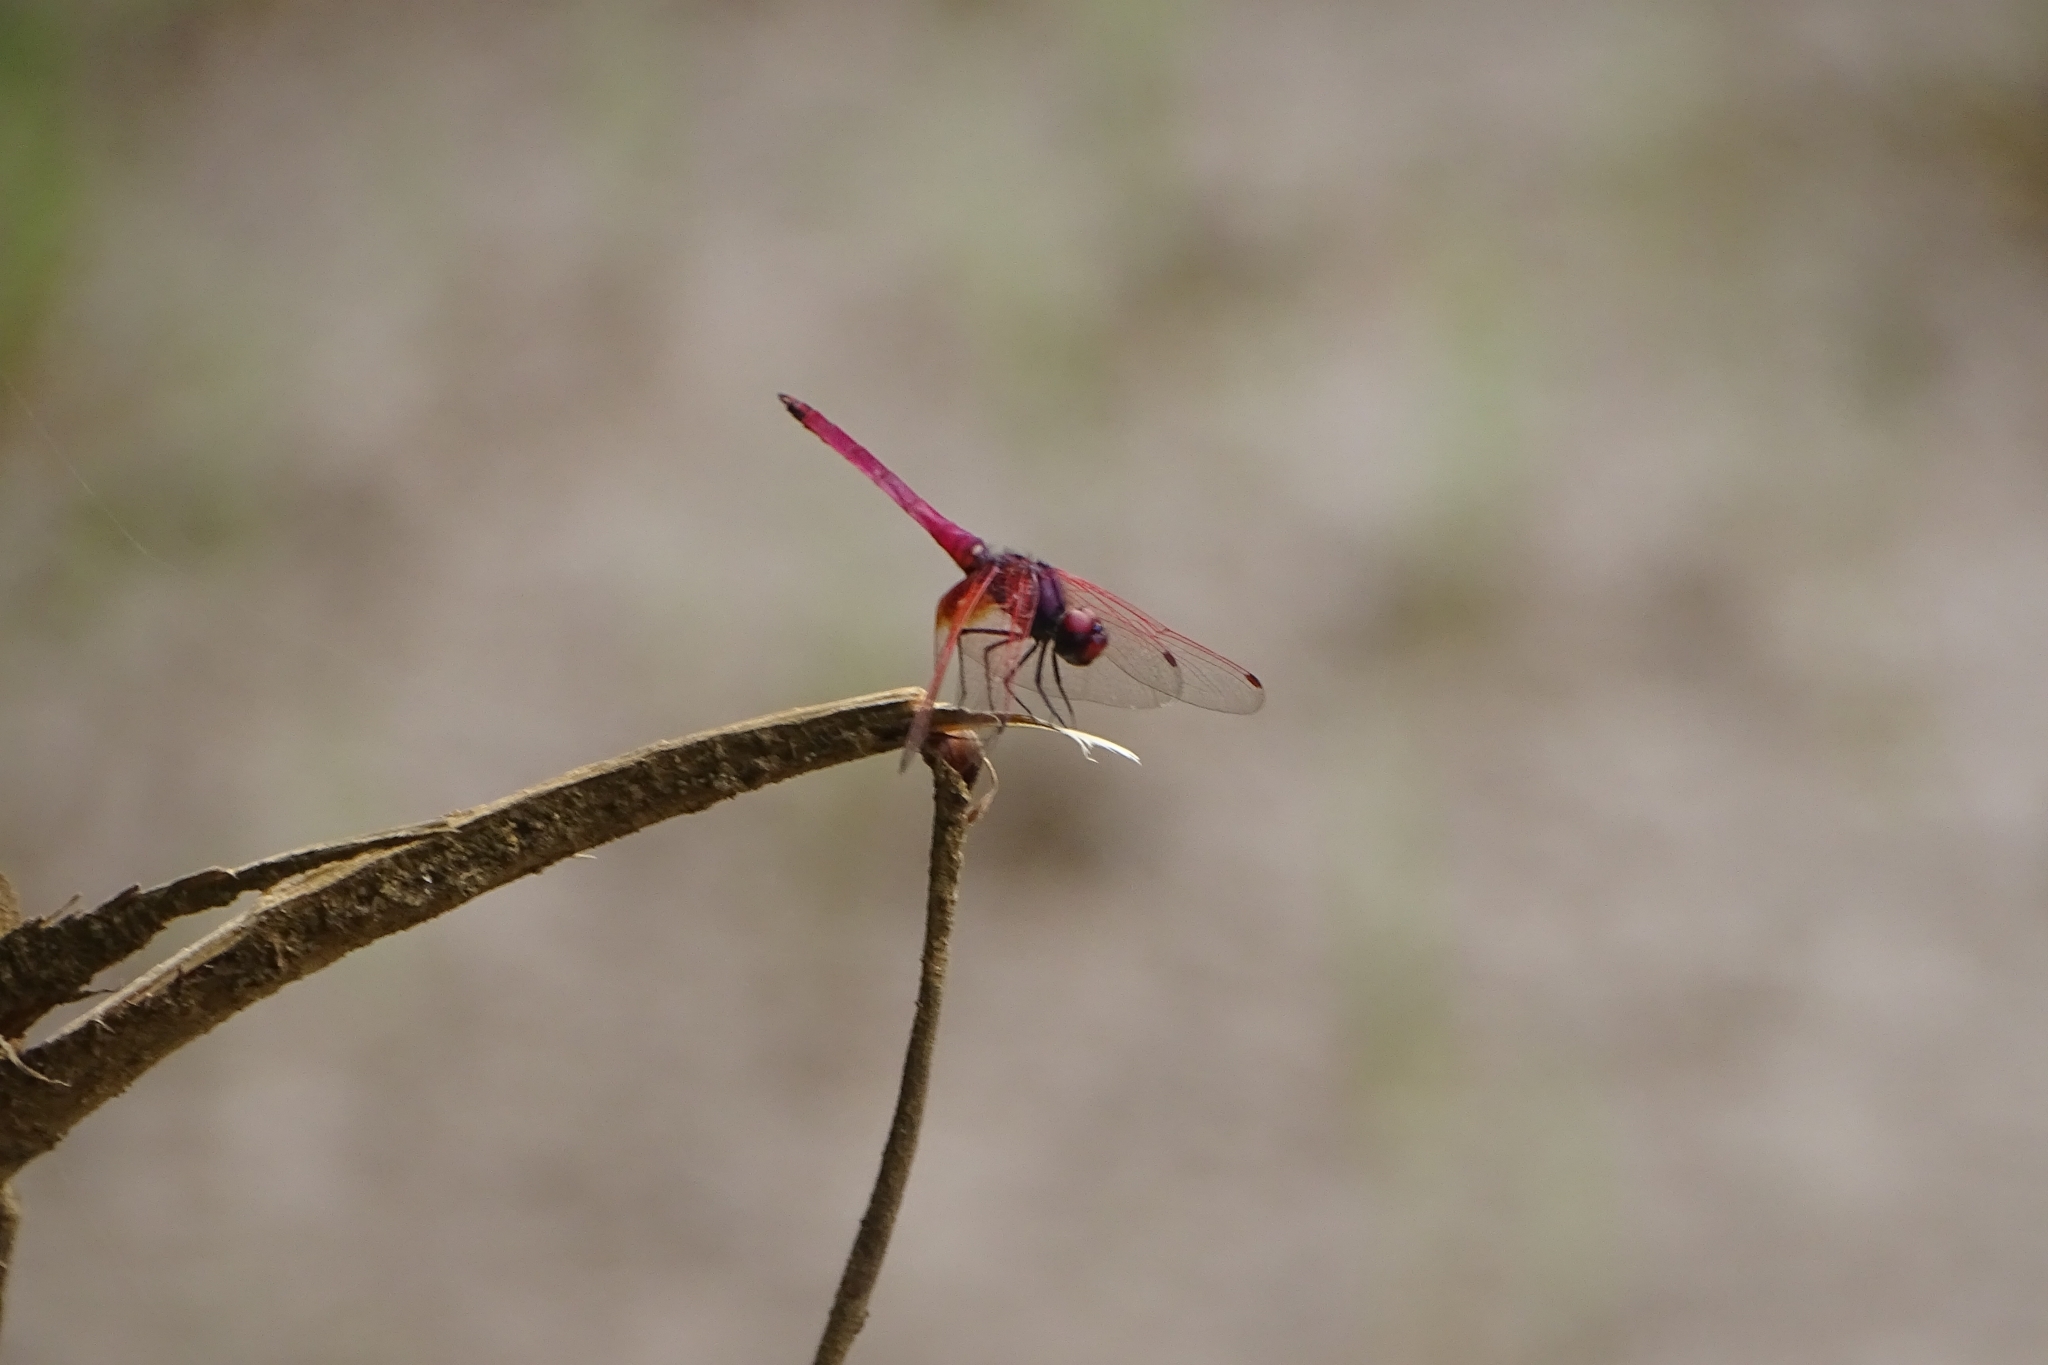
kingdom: Animalia
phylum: Arthropoda
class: Insecta
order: Odonata
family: Libellulidae
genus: Trithemis
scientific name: Trithemis aurora
